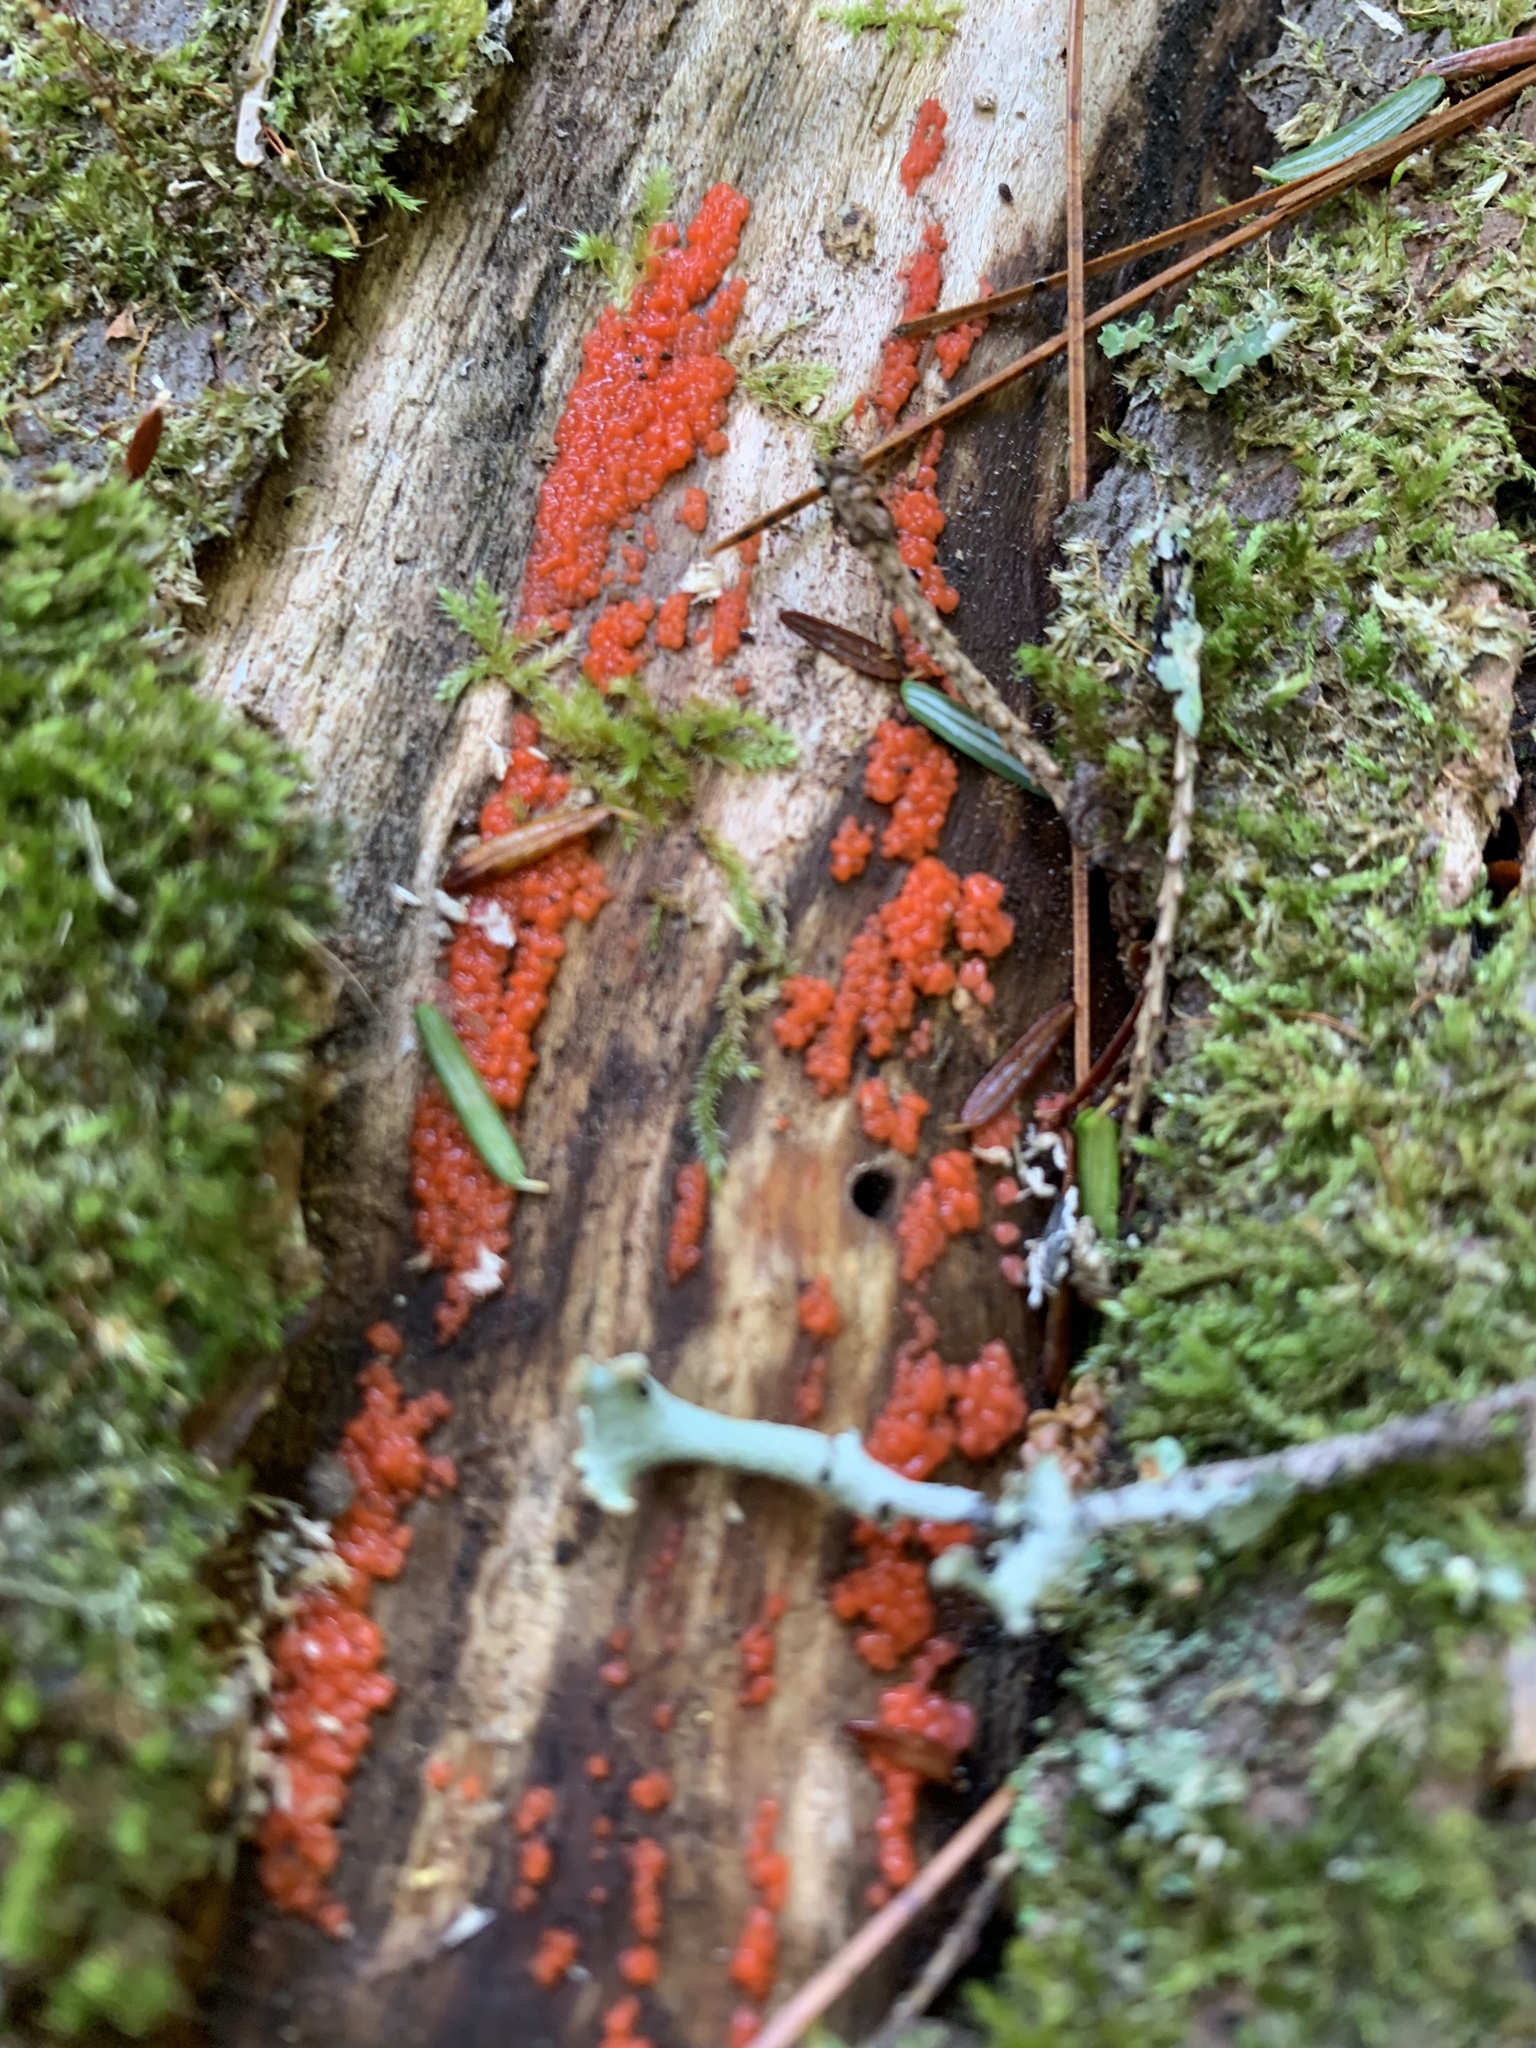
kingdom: Fungi
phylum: Basidiomycota
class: Agaricomycetes
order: Cantharellales
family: Tulasnellaceae
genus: Tulasnella
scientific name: Tulasnella aurantiaca
